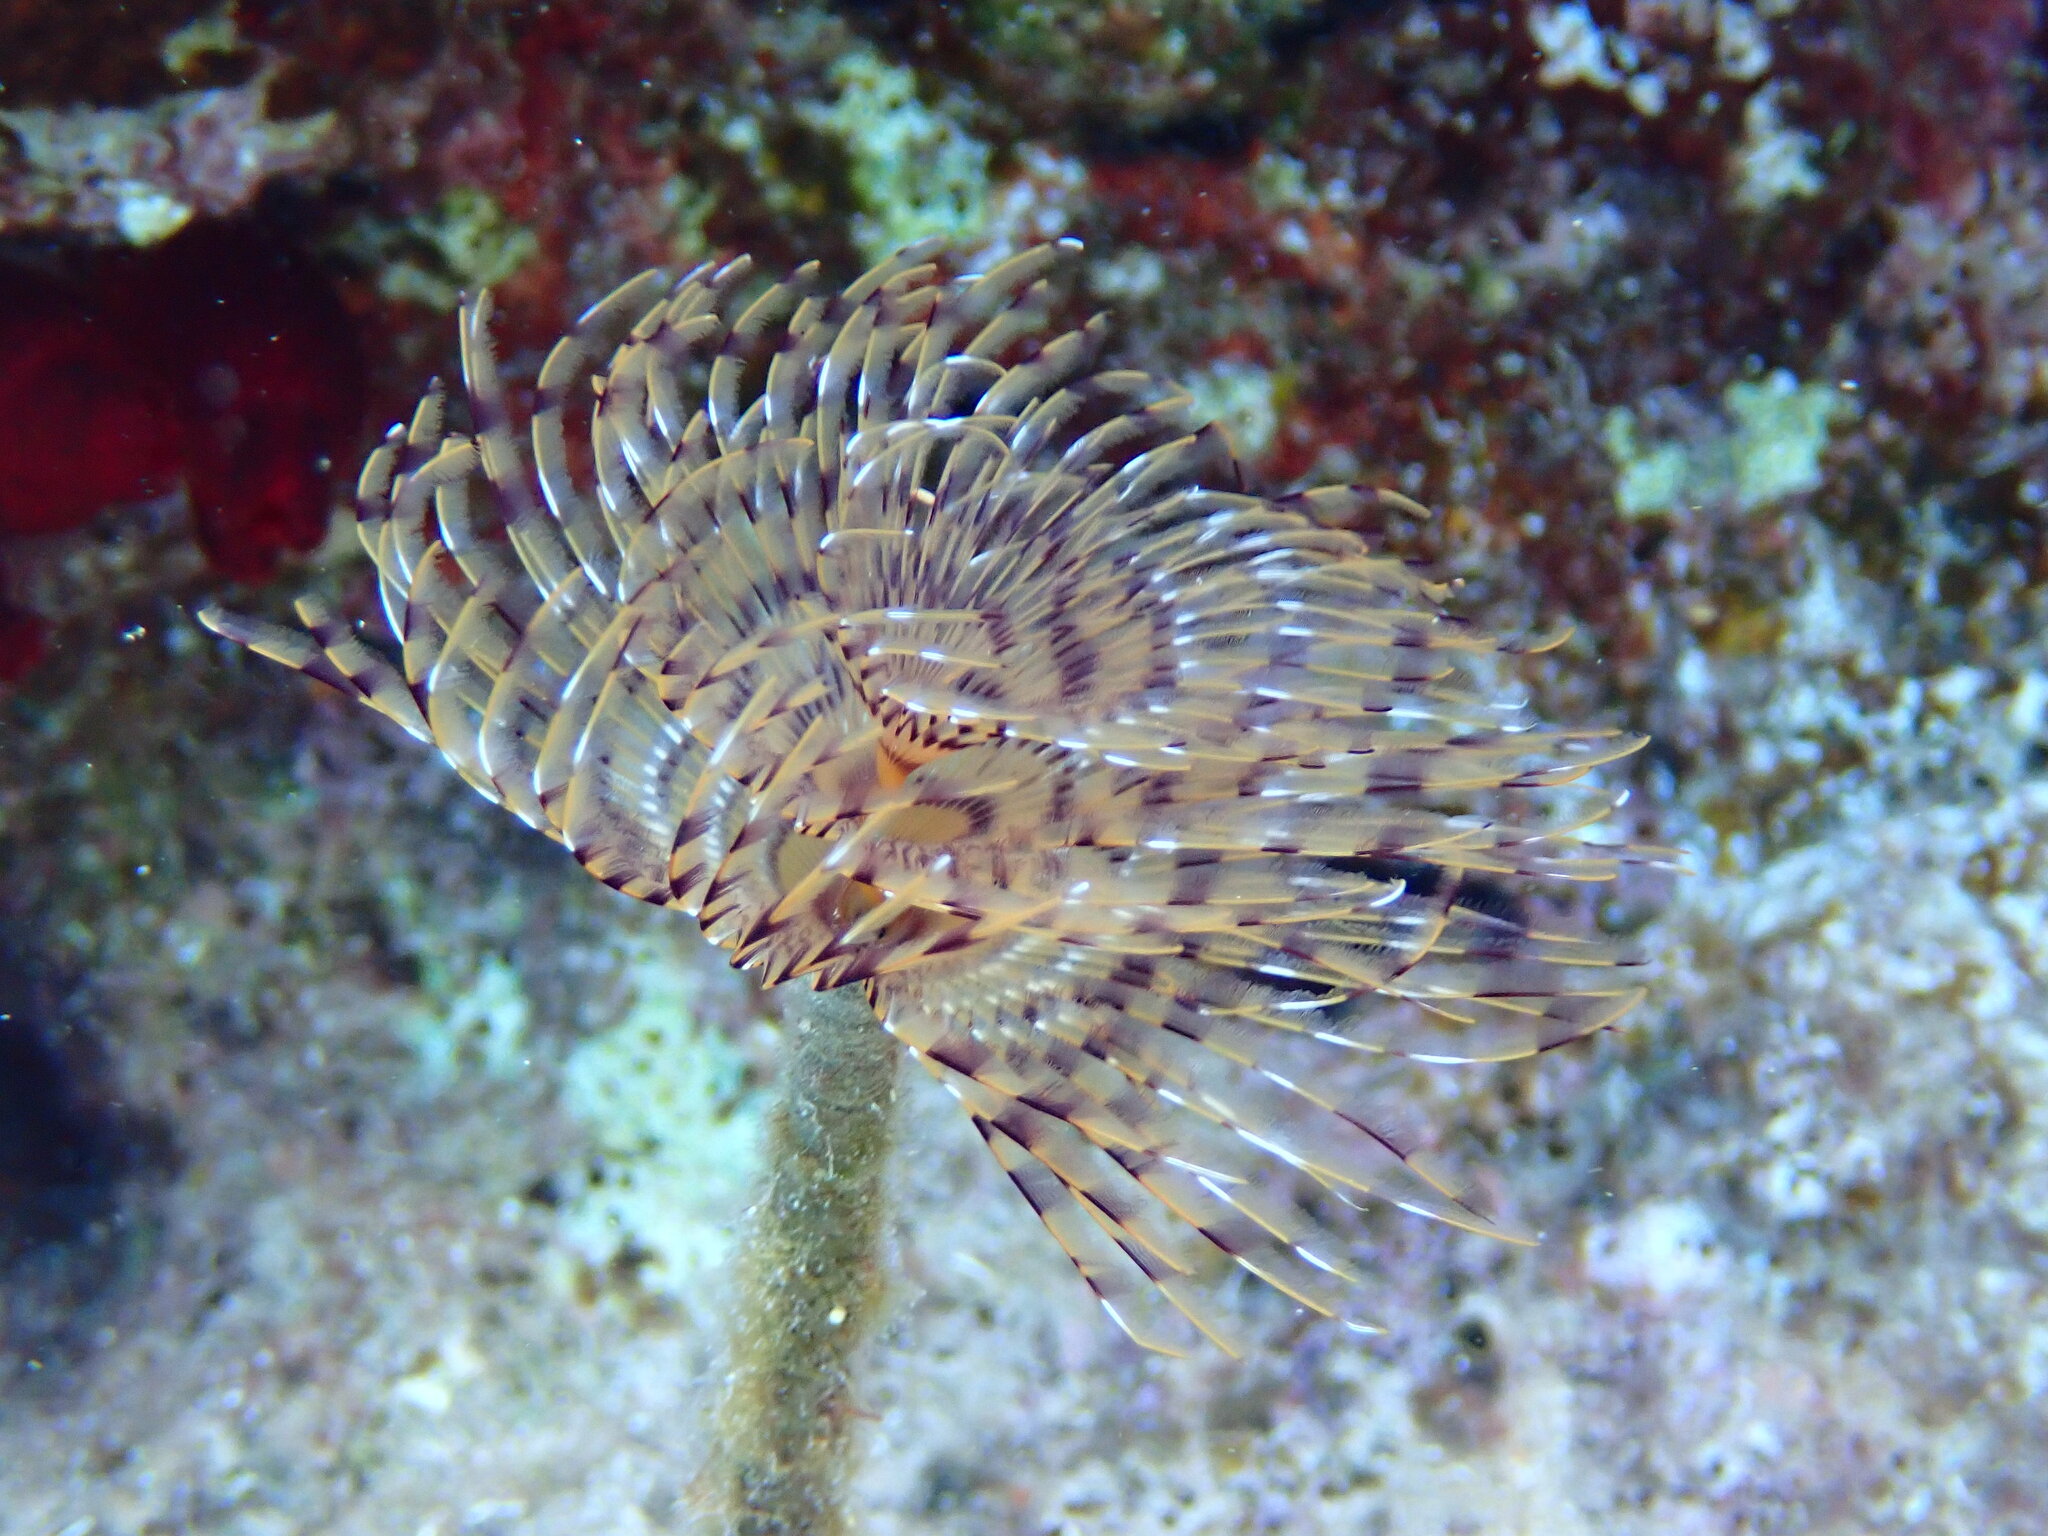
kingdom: Animalia
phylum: Annelida
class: Polychaeta
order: Sabellida
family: Sabellidae
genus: Sabella
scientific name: Sabella spallanzanii
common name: Feather duster worm
